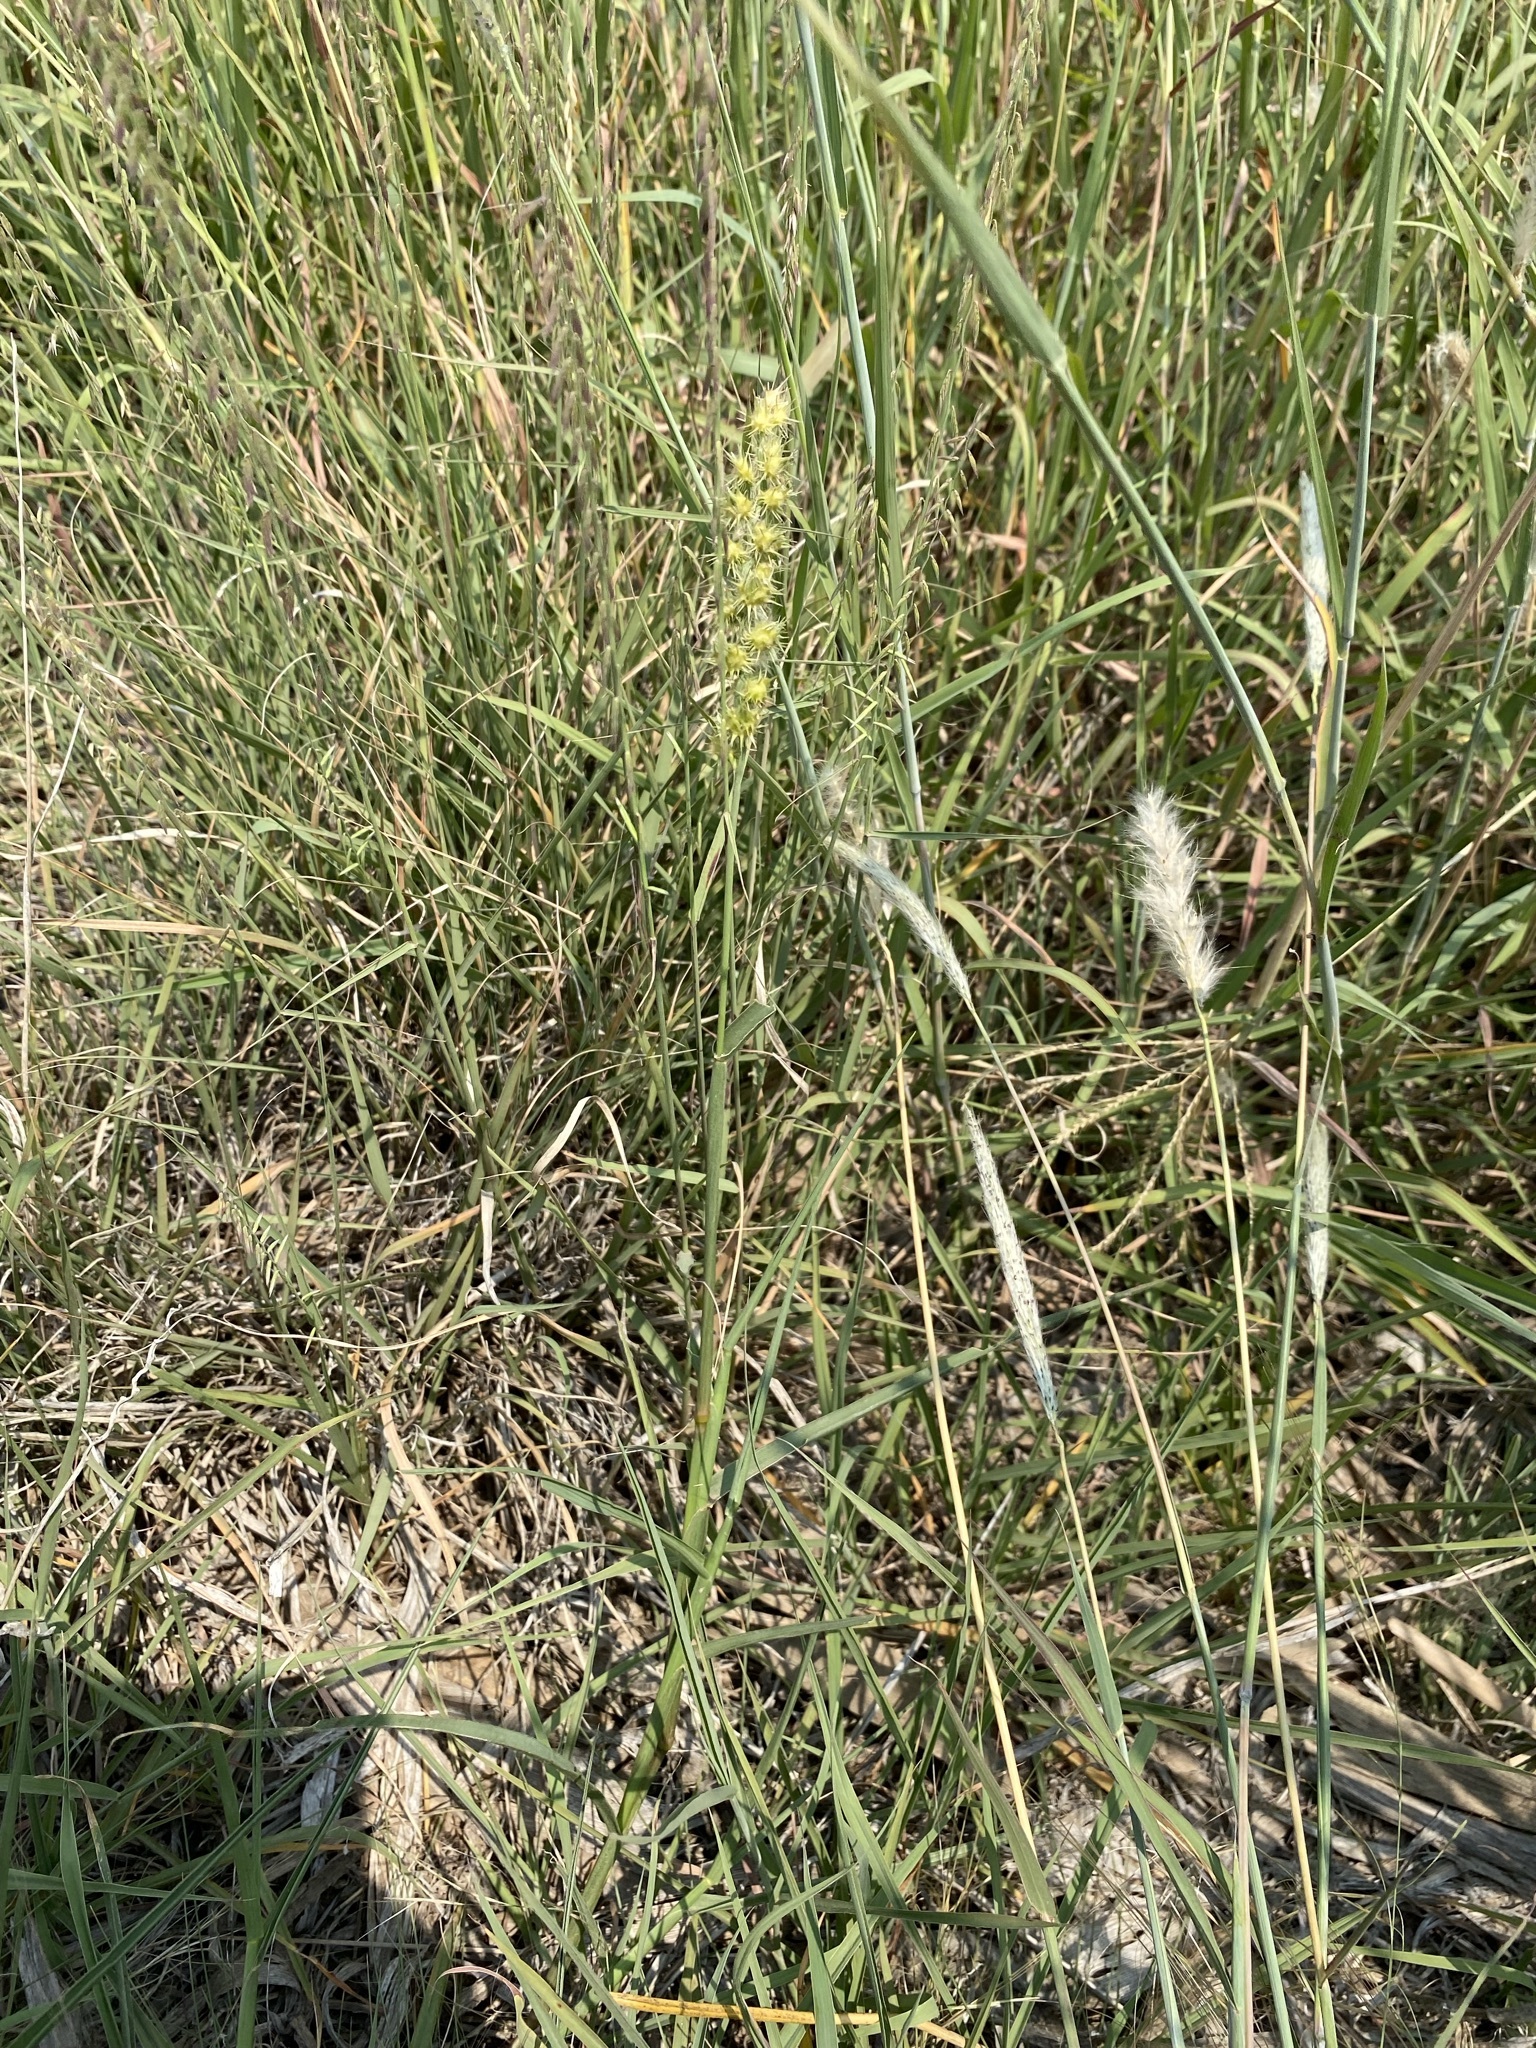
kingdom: Plantae
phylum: Tracheophyta
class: Liliopsida
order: Poales
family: Poaceae
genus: Cenchrus
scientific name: Cenchrus longispinus
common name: Mat sandbur
